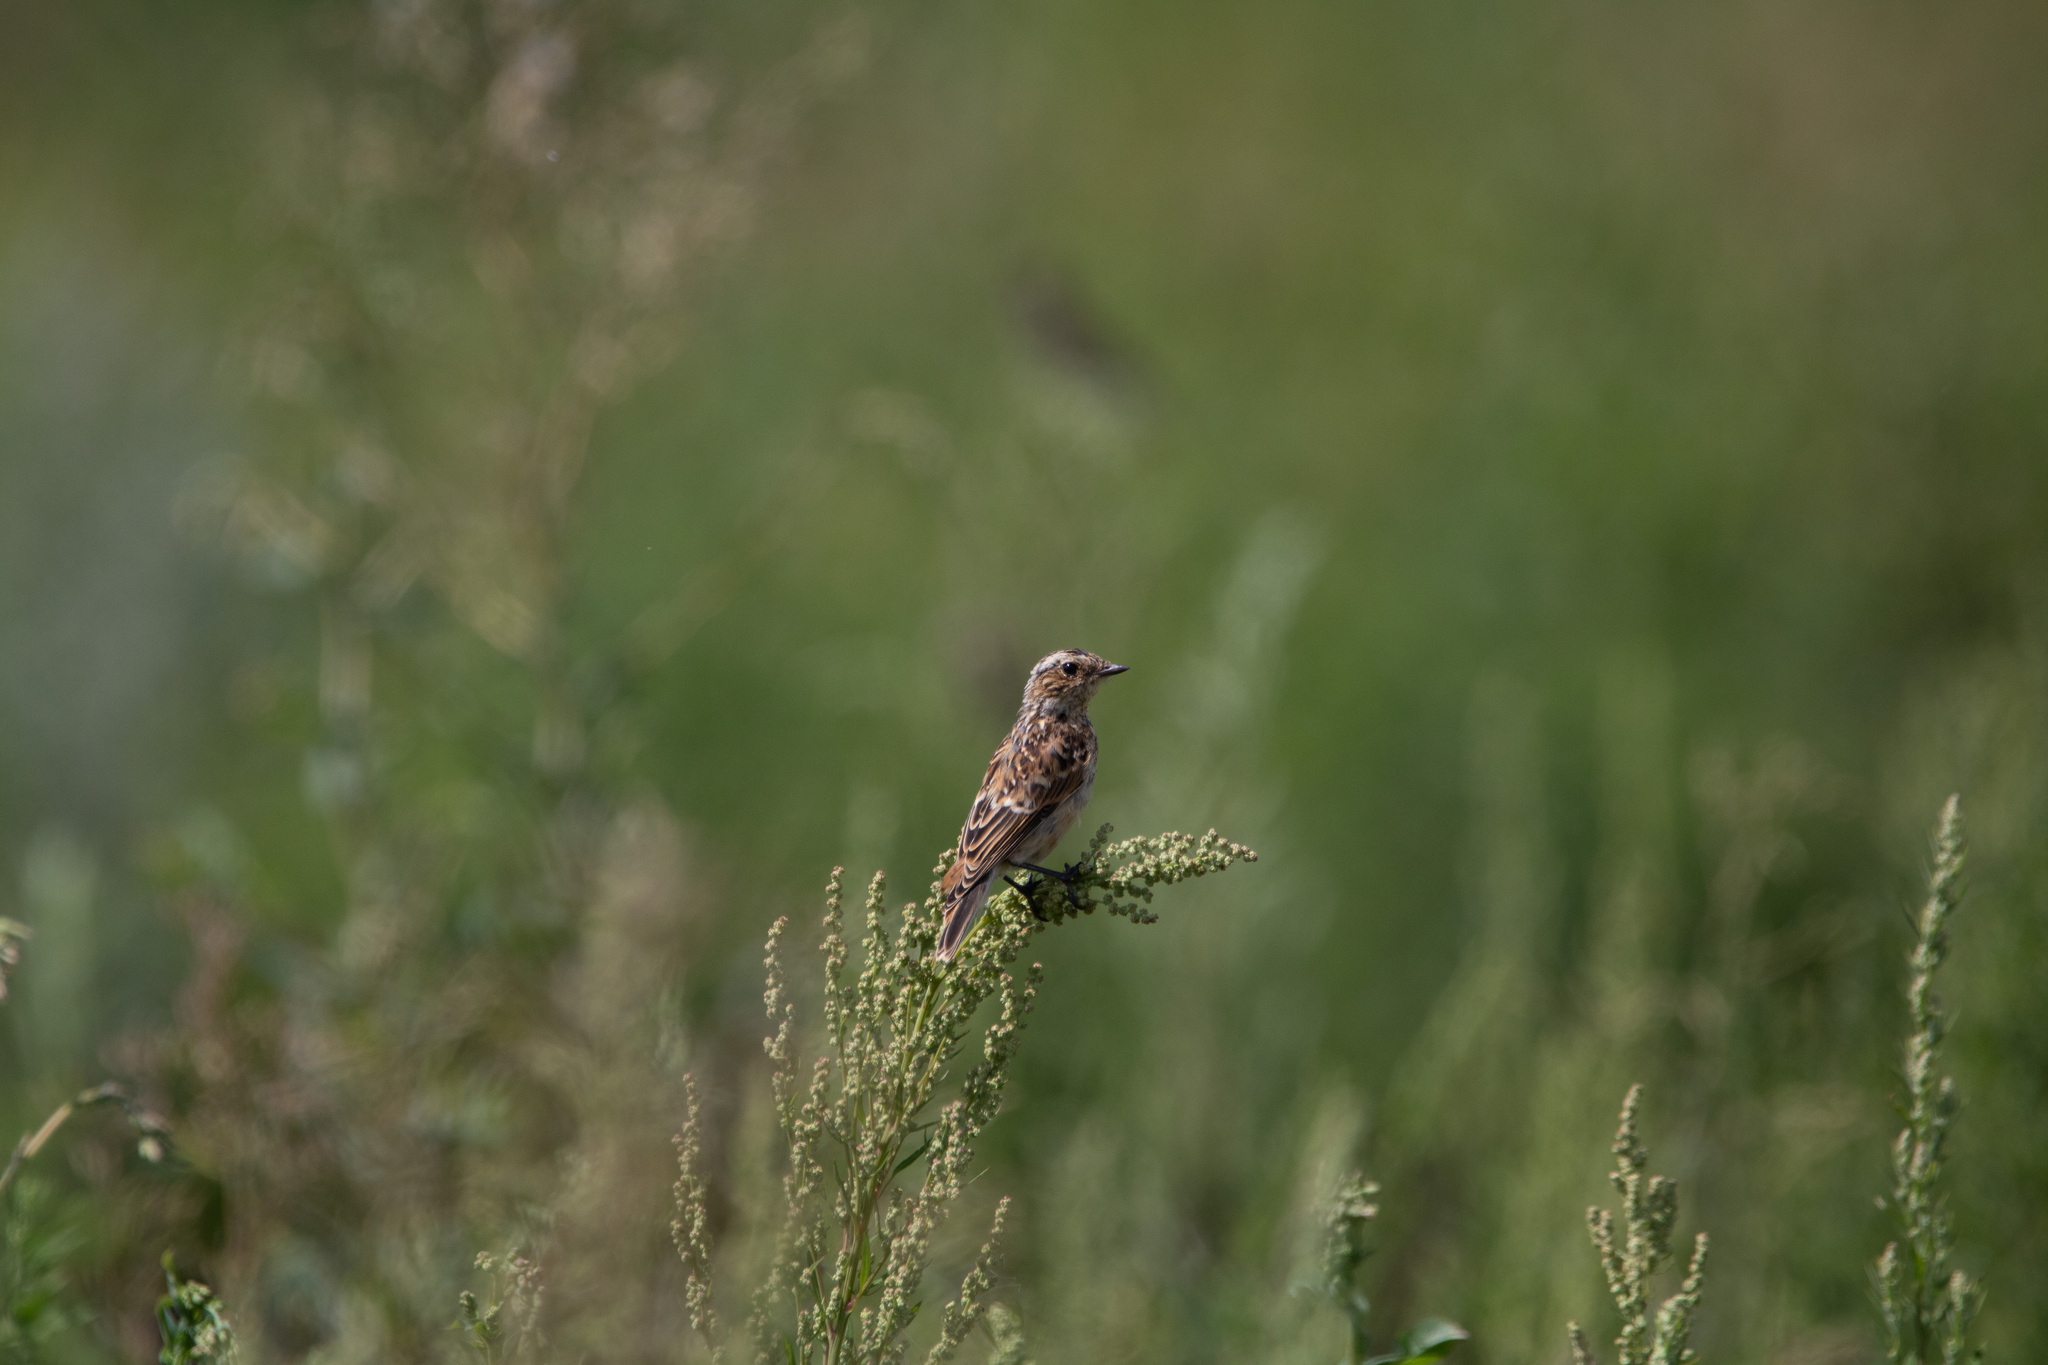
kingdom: Animalia
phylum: Chordata
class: Aves
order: Passeriformes
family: Muscicapidae
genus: Saxicola
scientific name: Saxicola rubetra
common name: Whinchat
